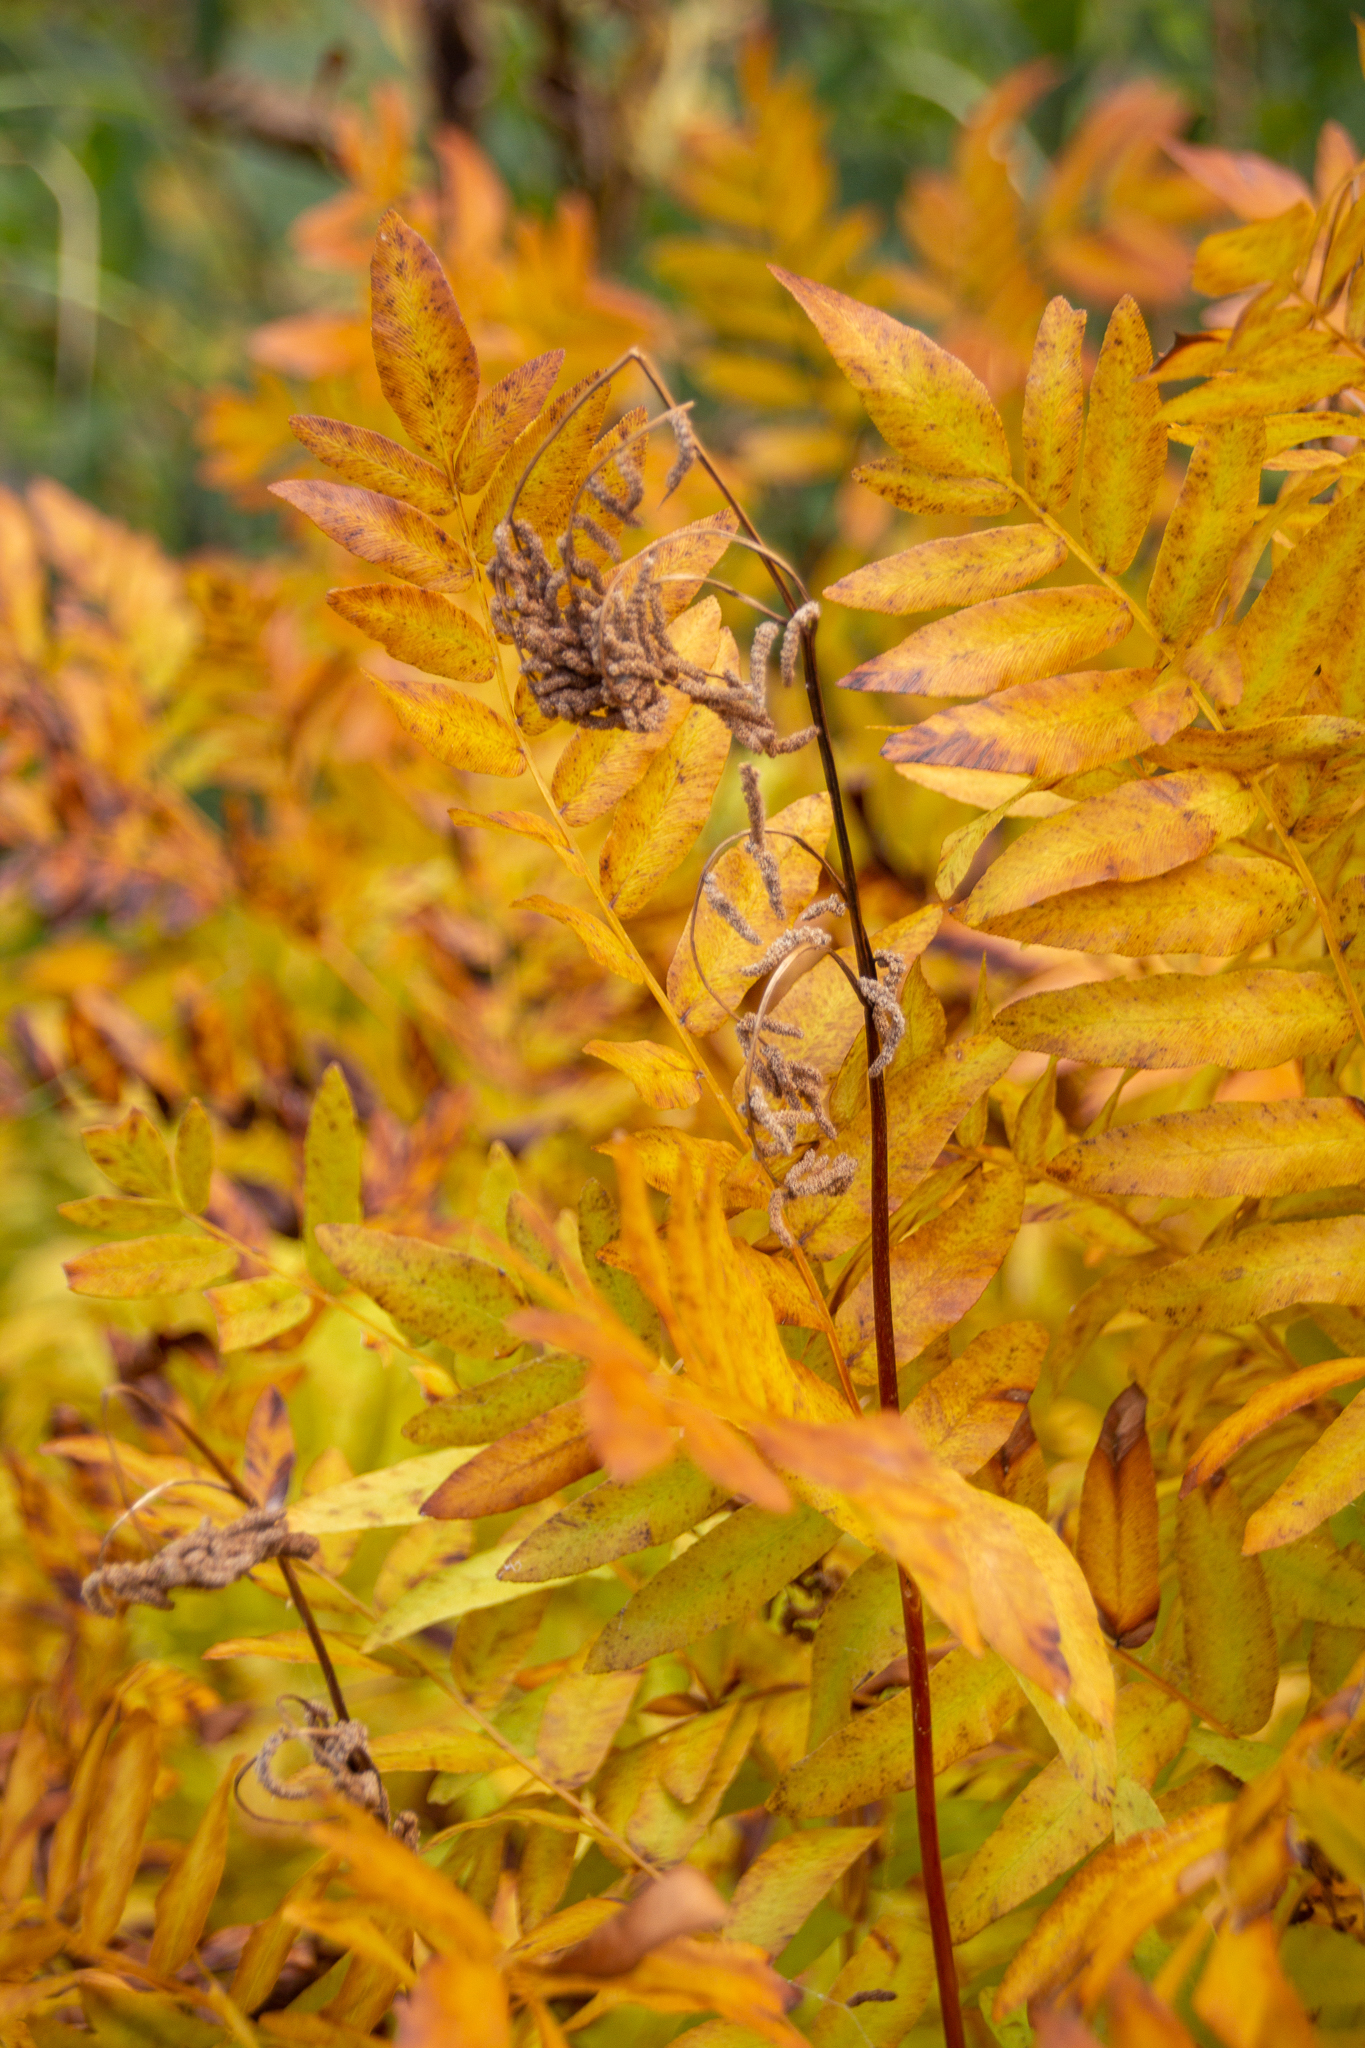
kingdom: Plantae
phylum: Tracheophyta
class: Polypodiopsida
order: Osmundales
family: Osmundaceae
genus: Osmunda
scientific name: Osmunda spectabilis
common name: American royal fern
